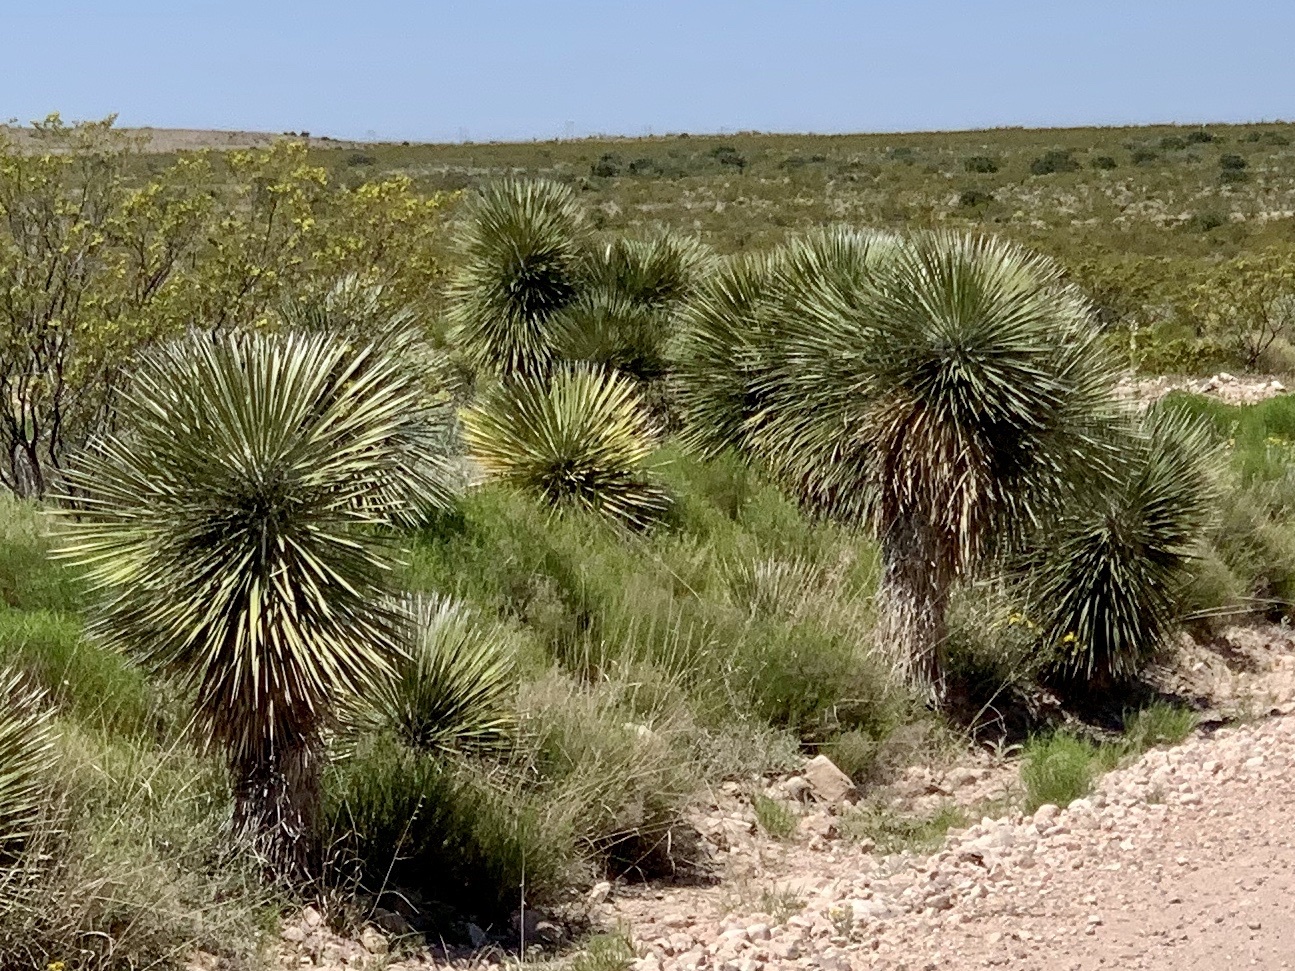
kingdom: Plantae
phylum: Tracheophyta
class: Liliopsida
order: Asparagales
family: Asparagaceae
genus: Yucca
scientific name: Yucca elata
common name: Palmella
